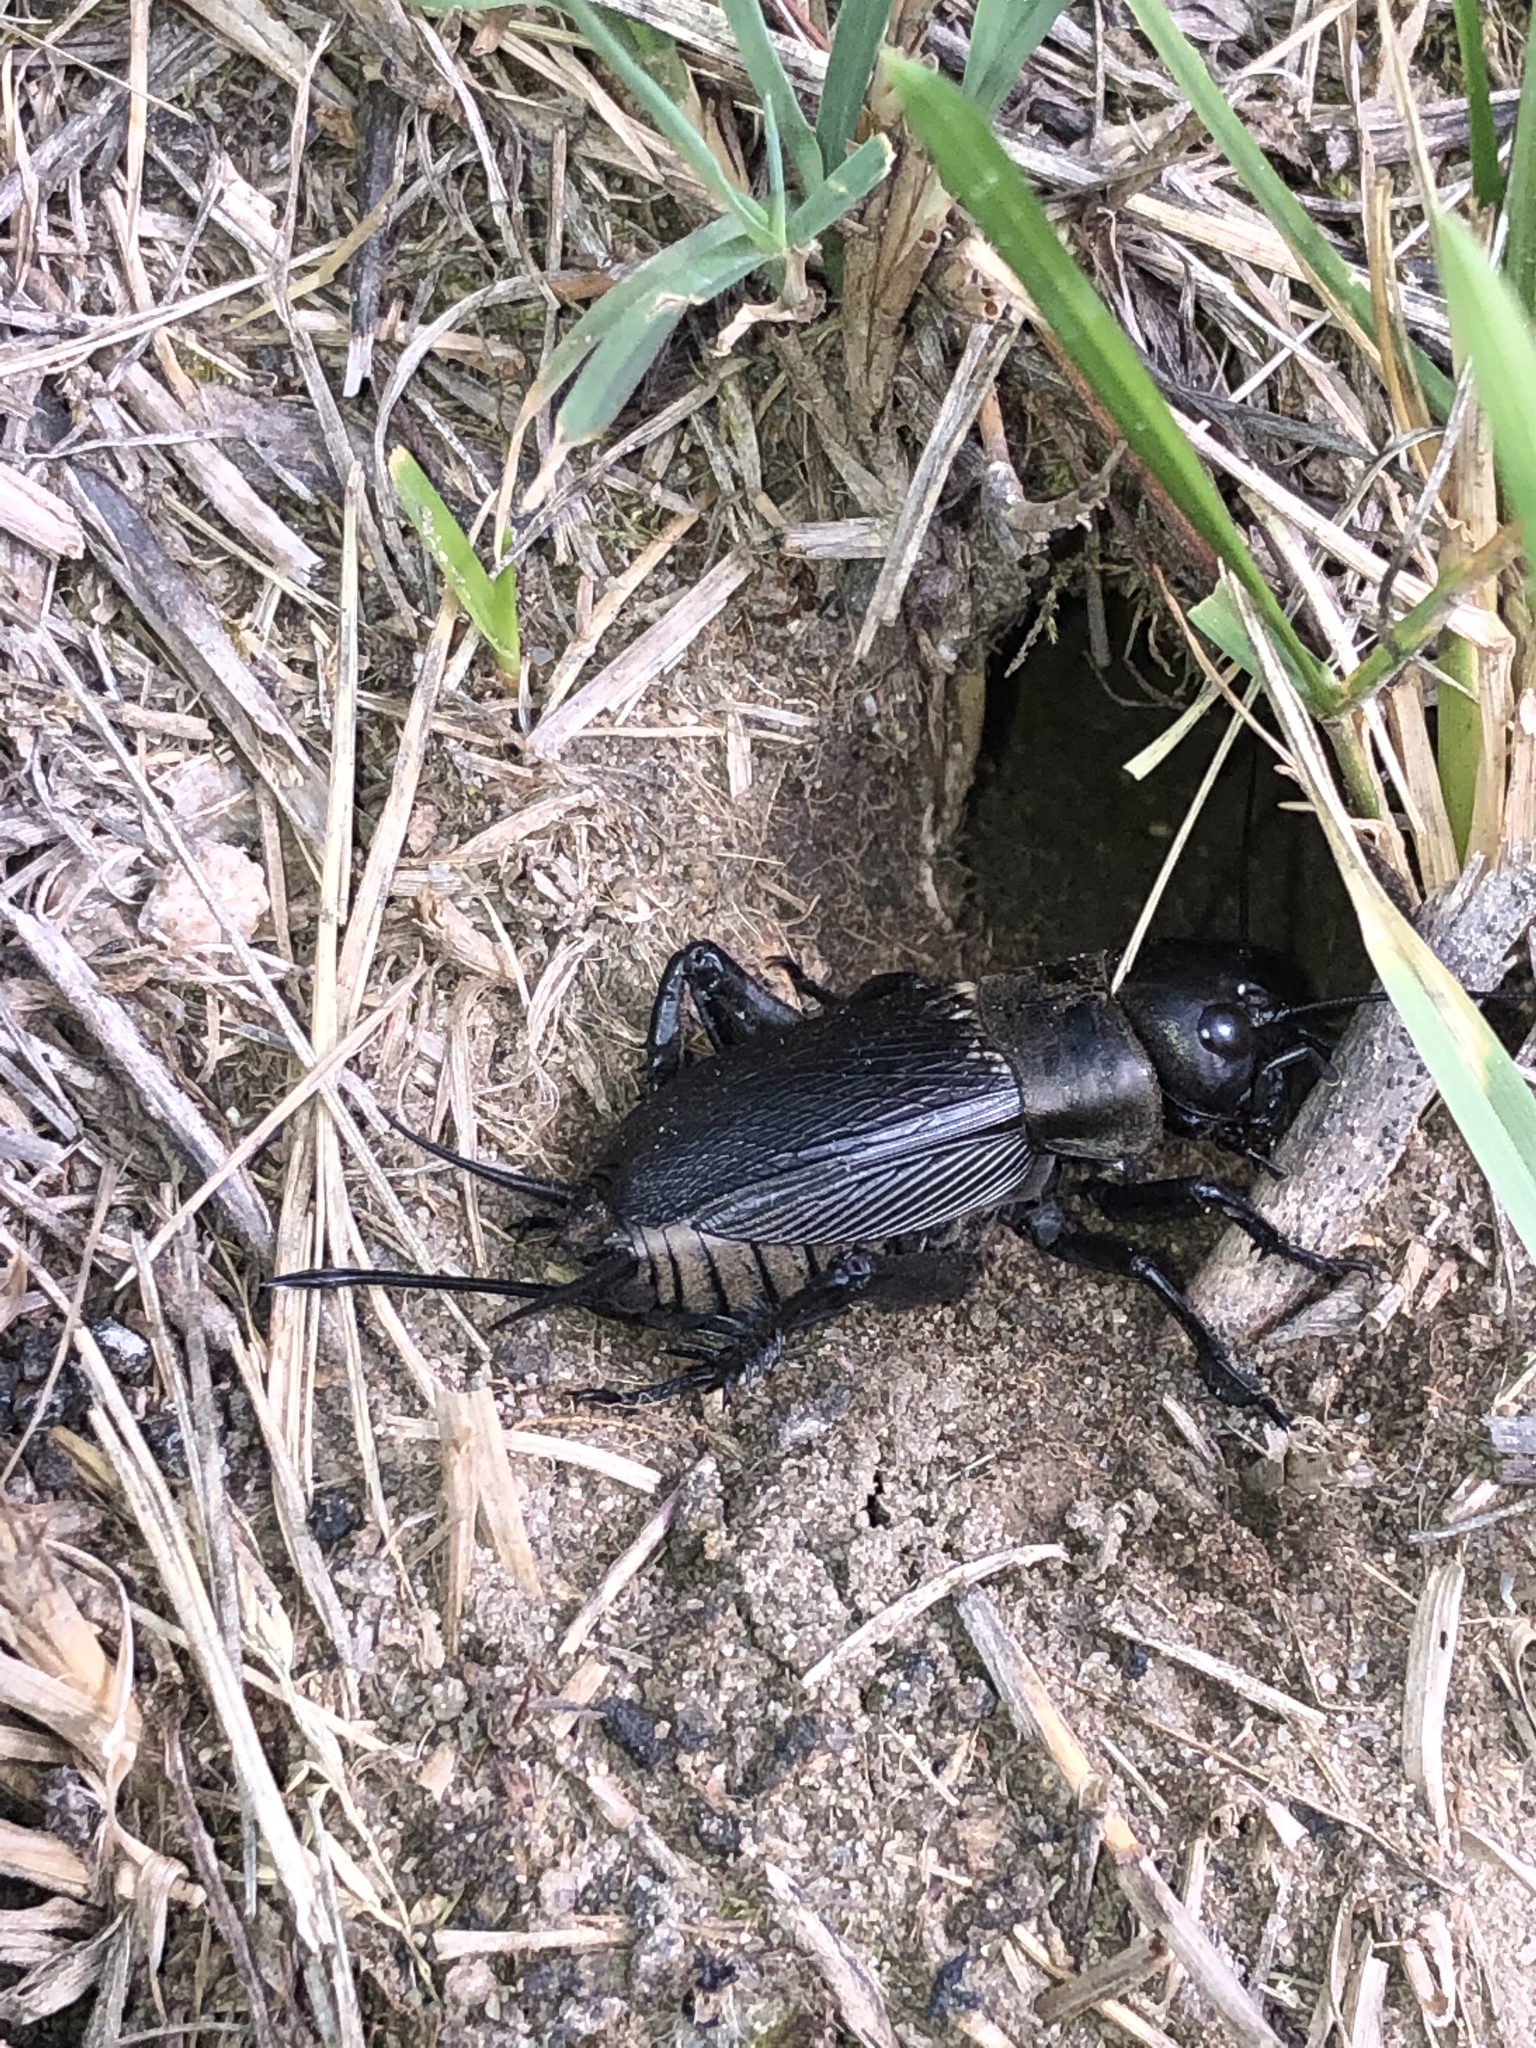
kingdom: Animalia
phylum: Arthropoda
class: Insecta
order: Orthoptera
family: Gryllidae
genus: Gryllus
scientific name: Gryllus campestris
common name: Field cricket
